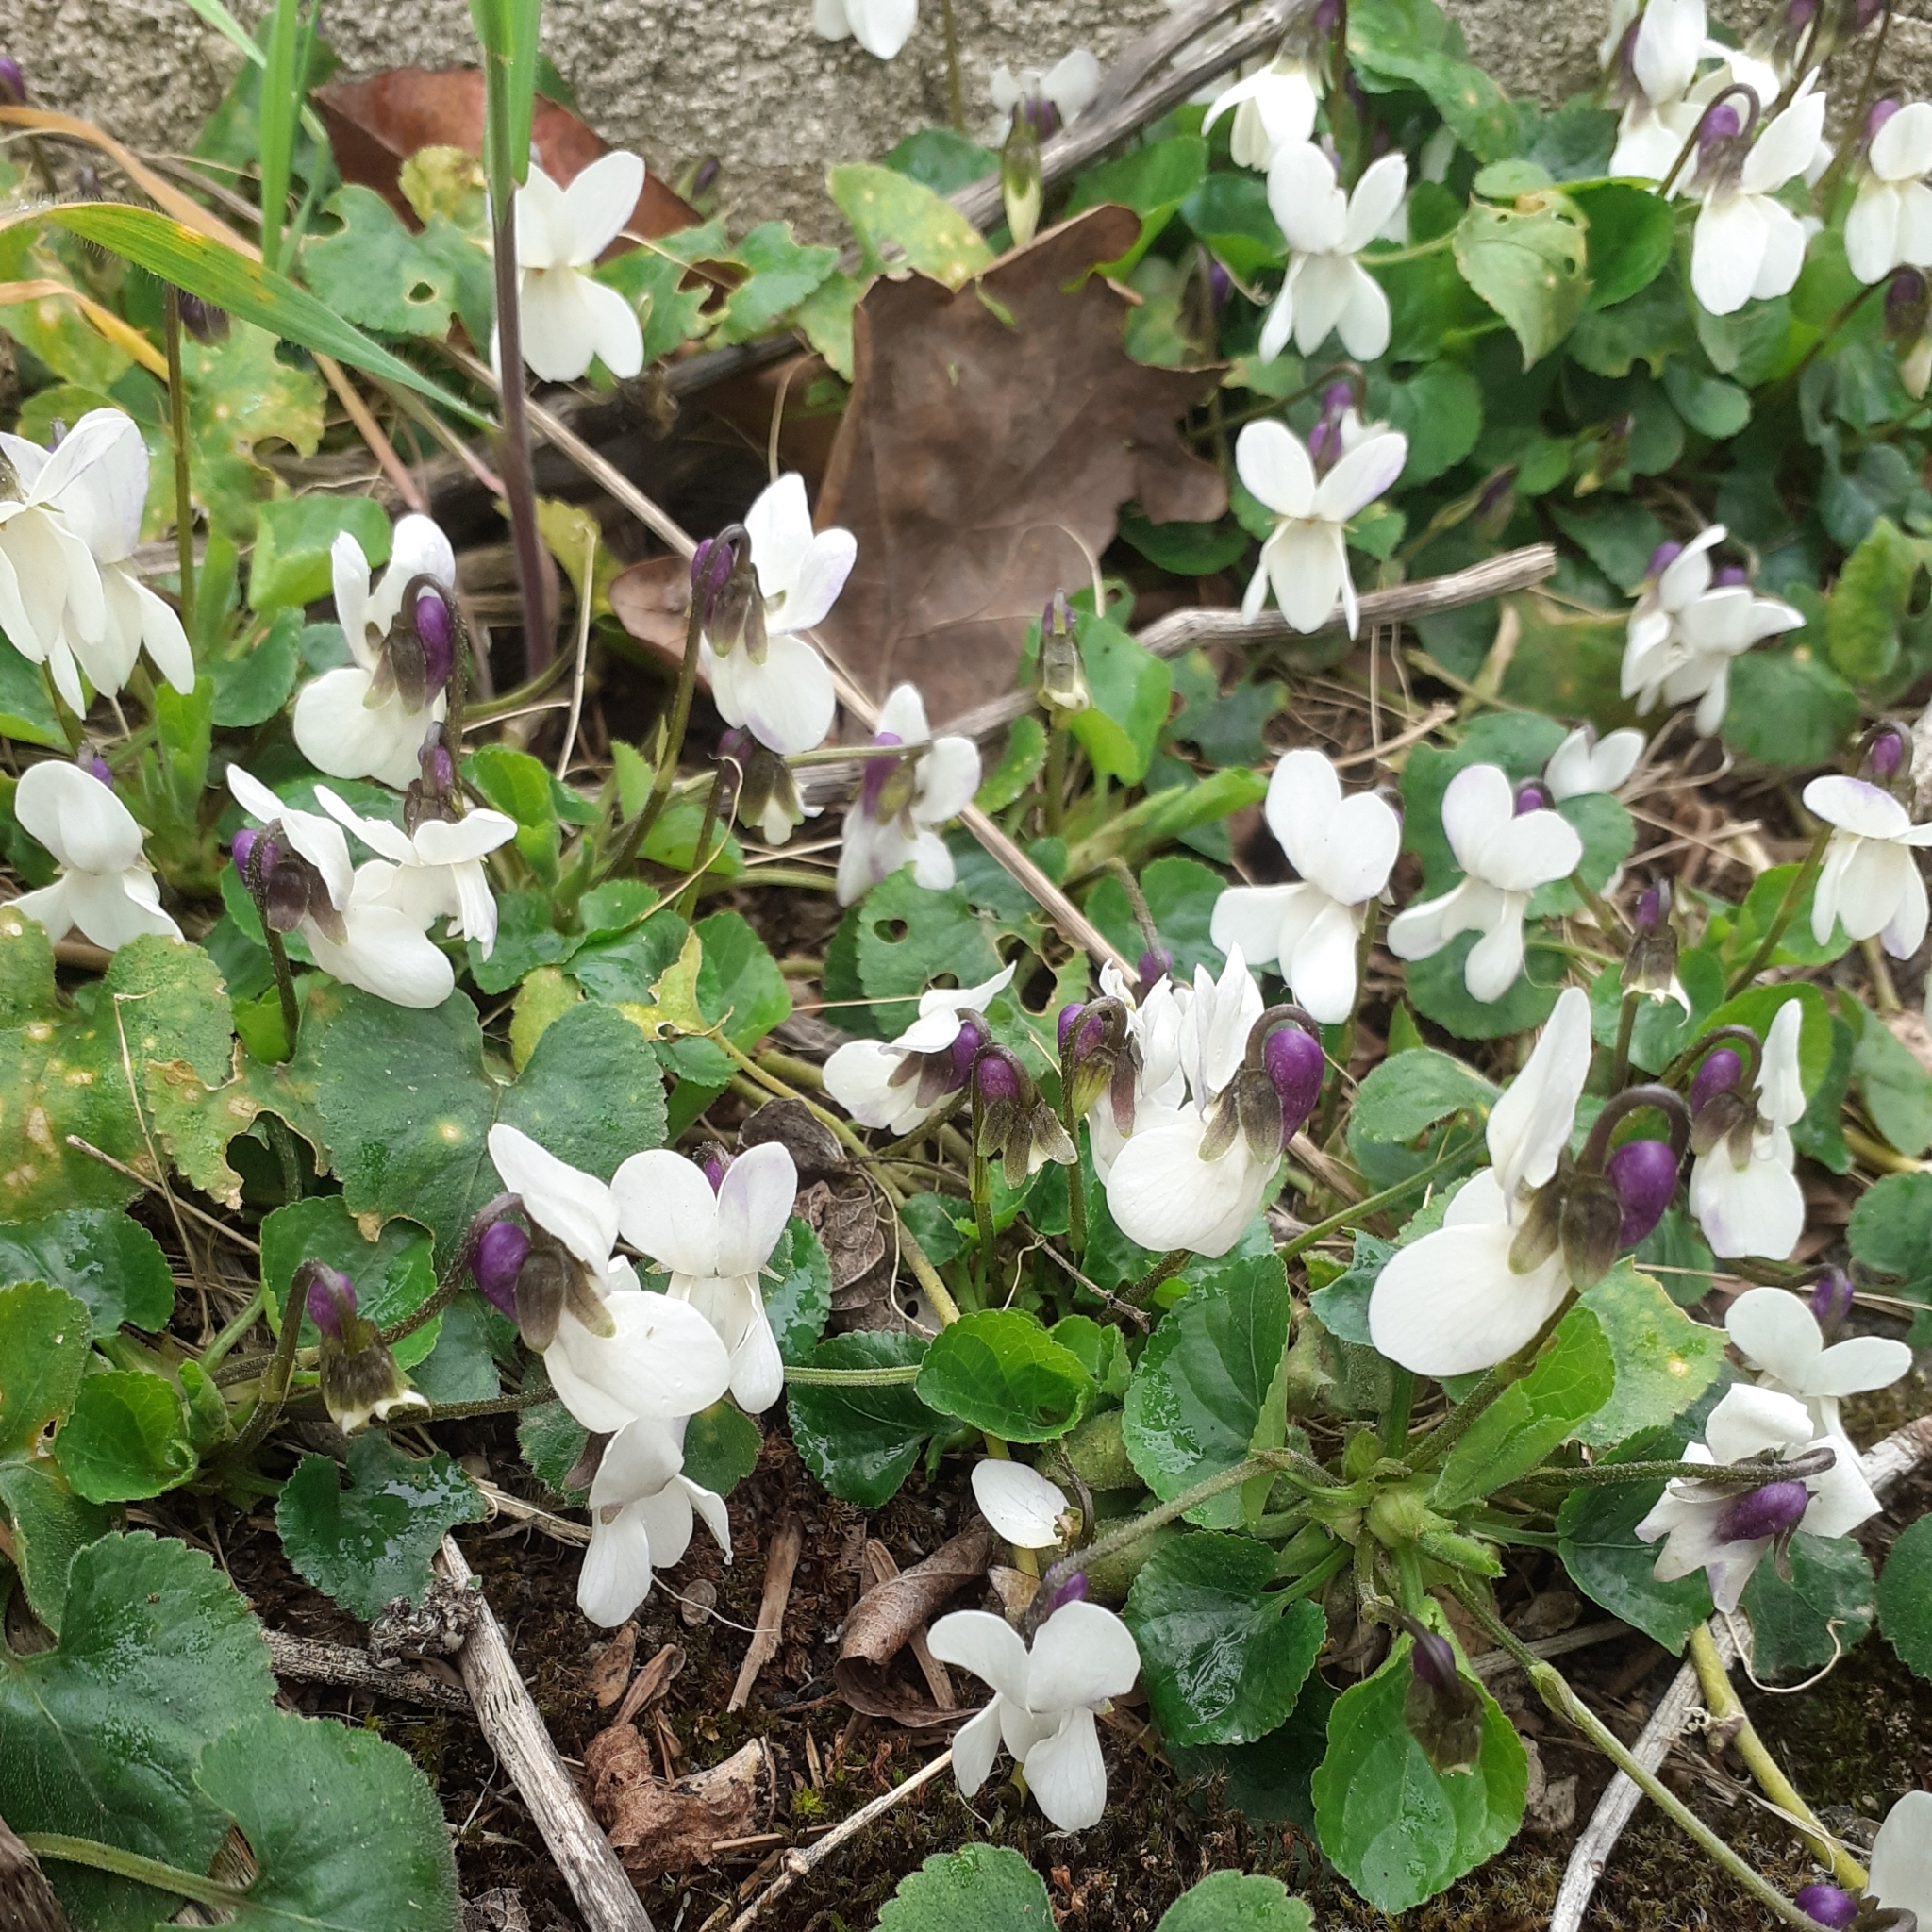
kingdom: Plantae
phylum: Tracheophyta
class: Magnoliopsida
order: Malpighiales
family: Violaceae
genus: Viola
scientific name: Viola odorata
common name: Sweet violet
